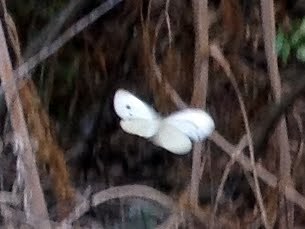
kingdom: Animalia
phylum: Arthropoda
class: Insecta
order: Lepidoptera
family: Pieridae
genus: Pieris
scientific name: Pieris rapae
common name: Small white
